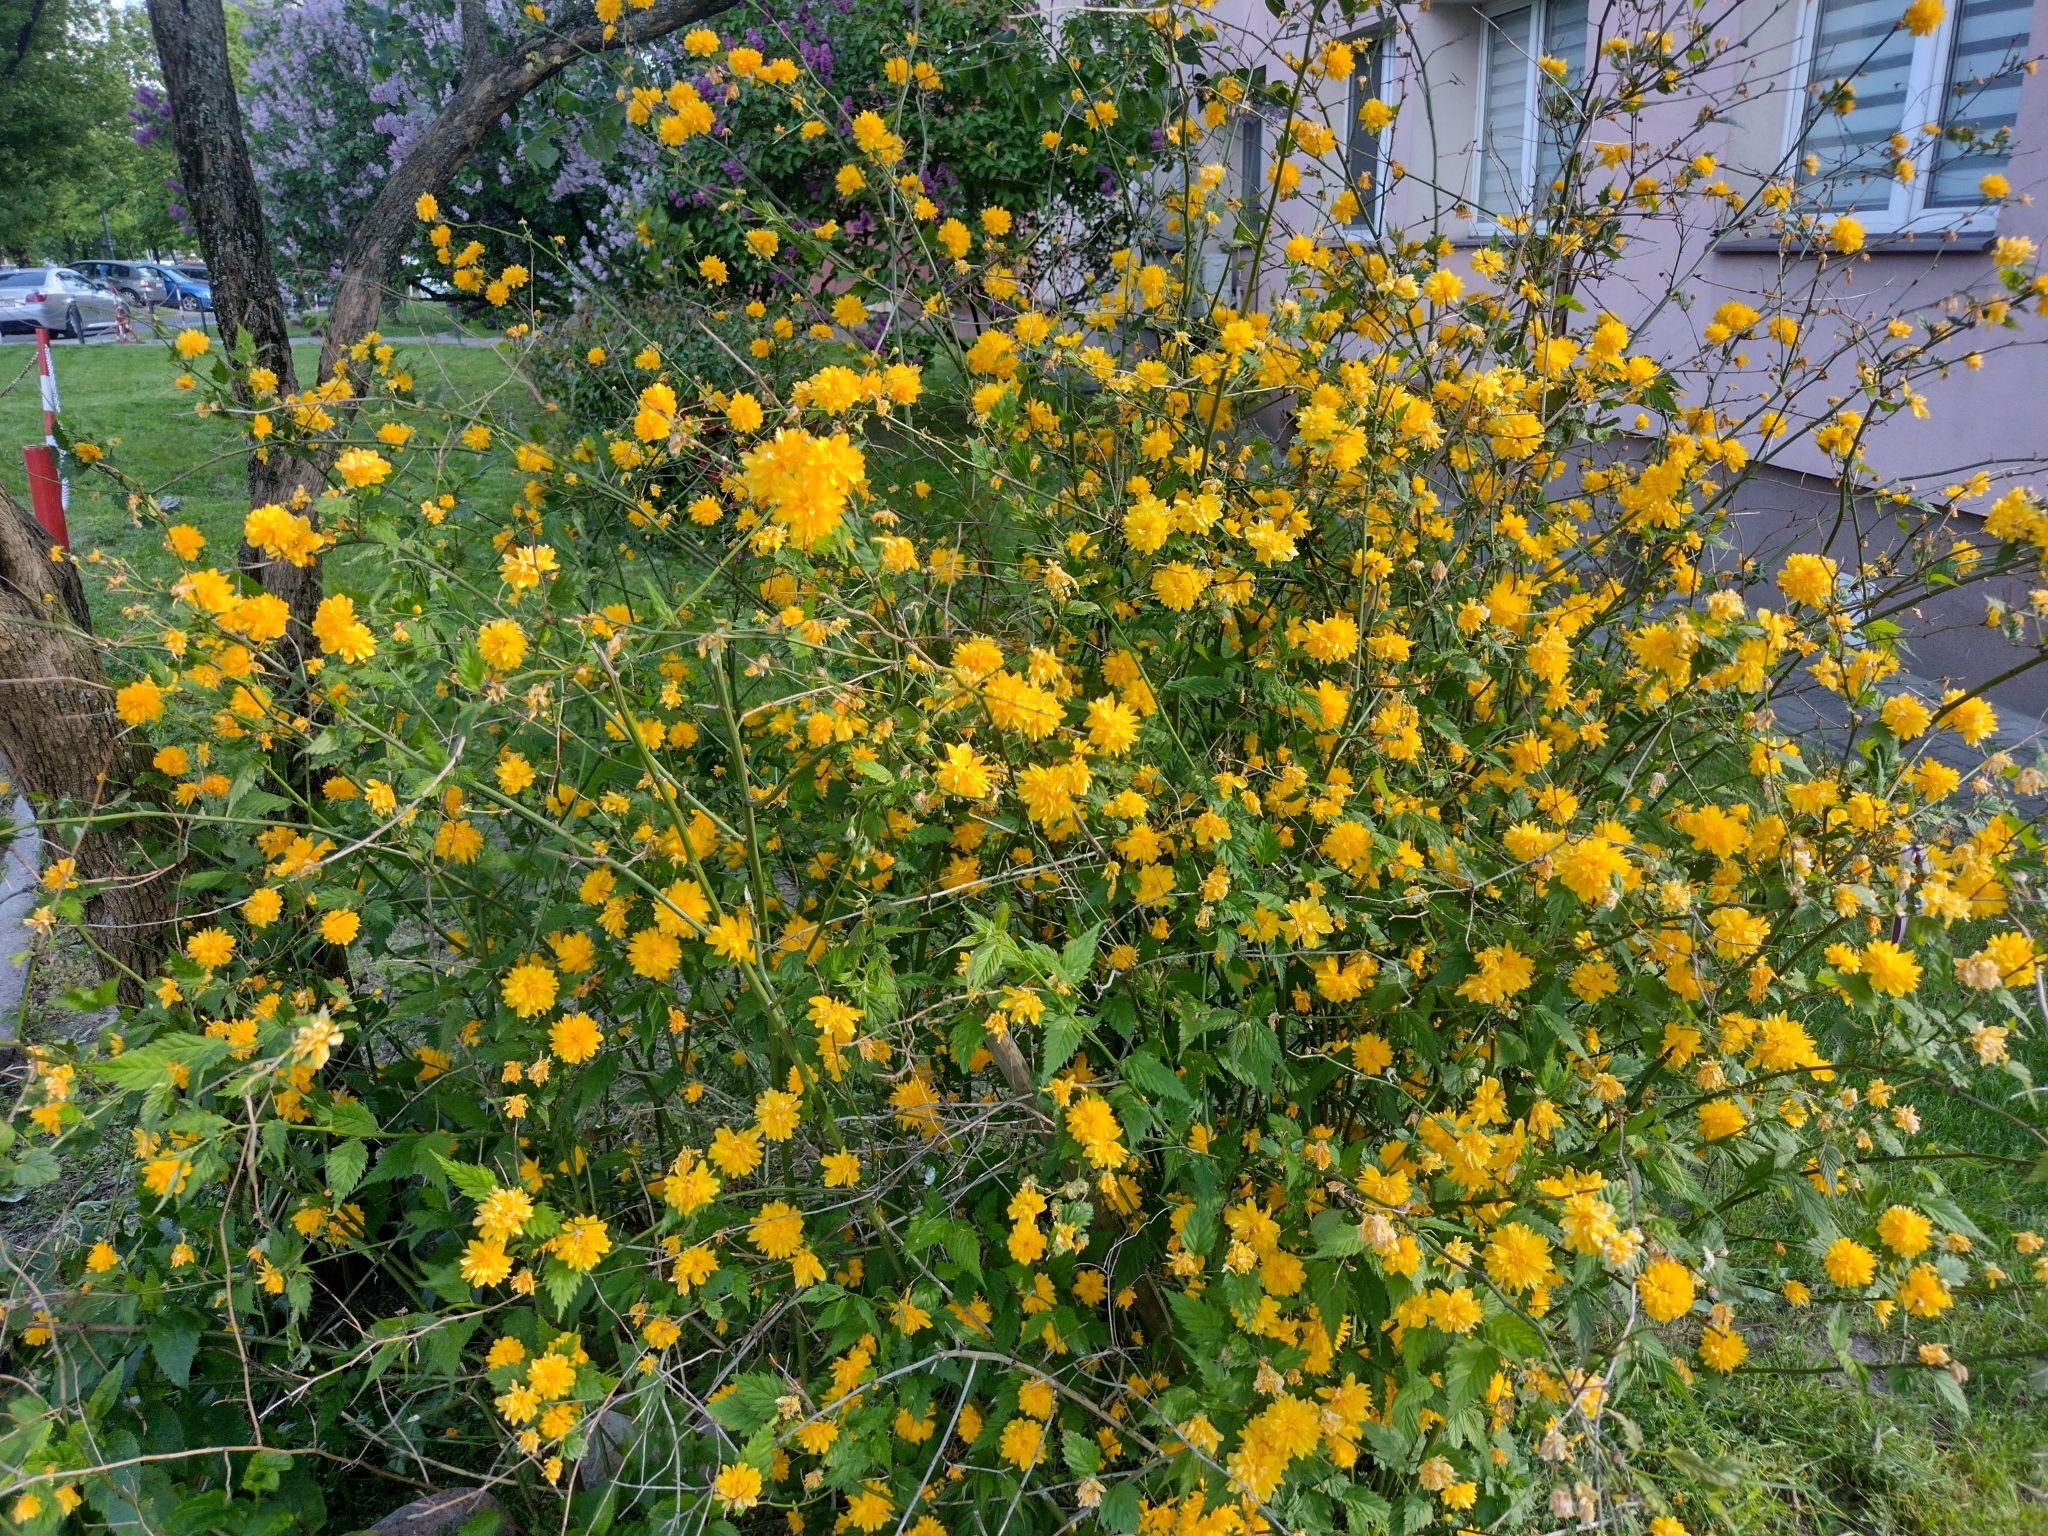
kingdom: Plantae
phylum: Tracheophyta
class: Magnoliopsida
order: Rosales
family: Rosaceae
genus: Kerria
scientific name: Kerria japonica
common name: Japanese kerria
